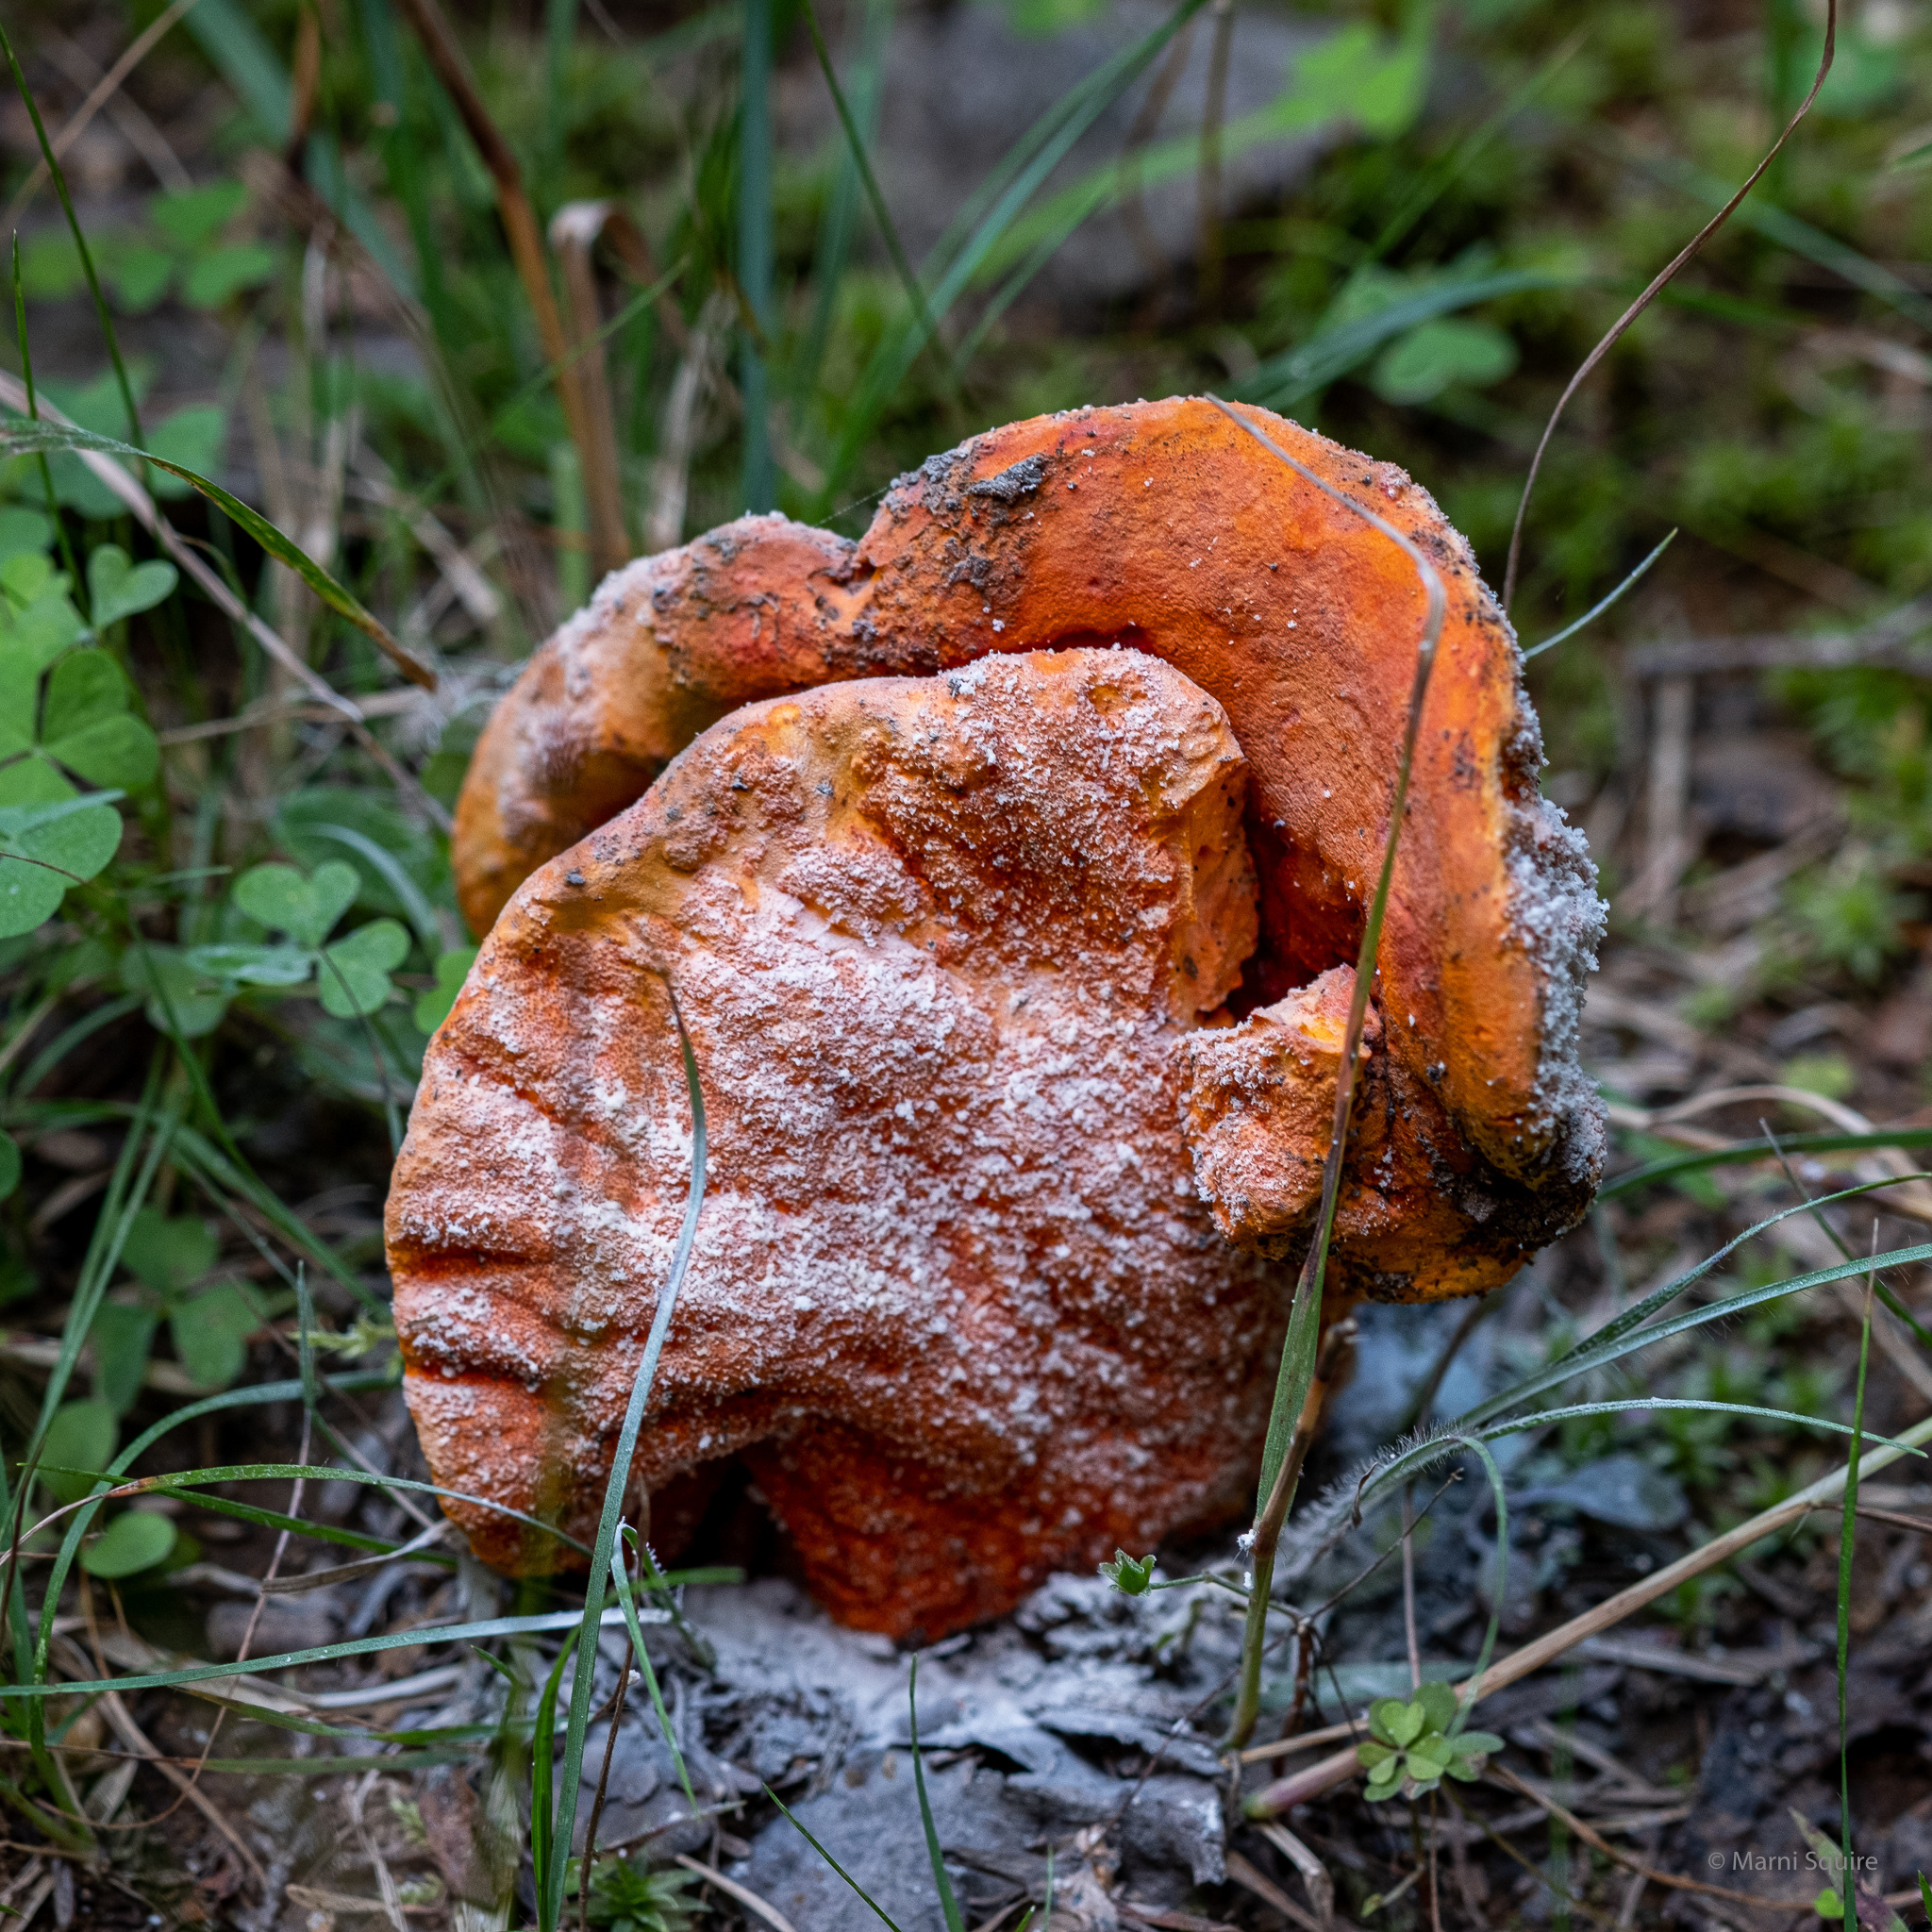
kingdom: Fungi
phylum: Ascomycota
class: Sordariomycetes
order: Hypocreales
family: Hypocreaceae
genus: Hypomyces
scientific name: Hypomyces lactifluorum
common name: Lobster mushroom
